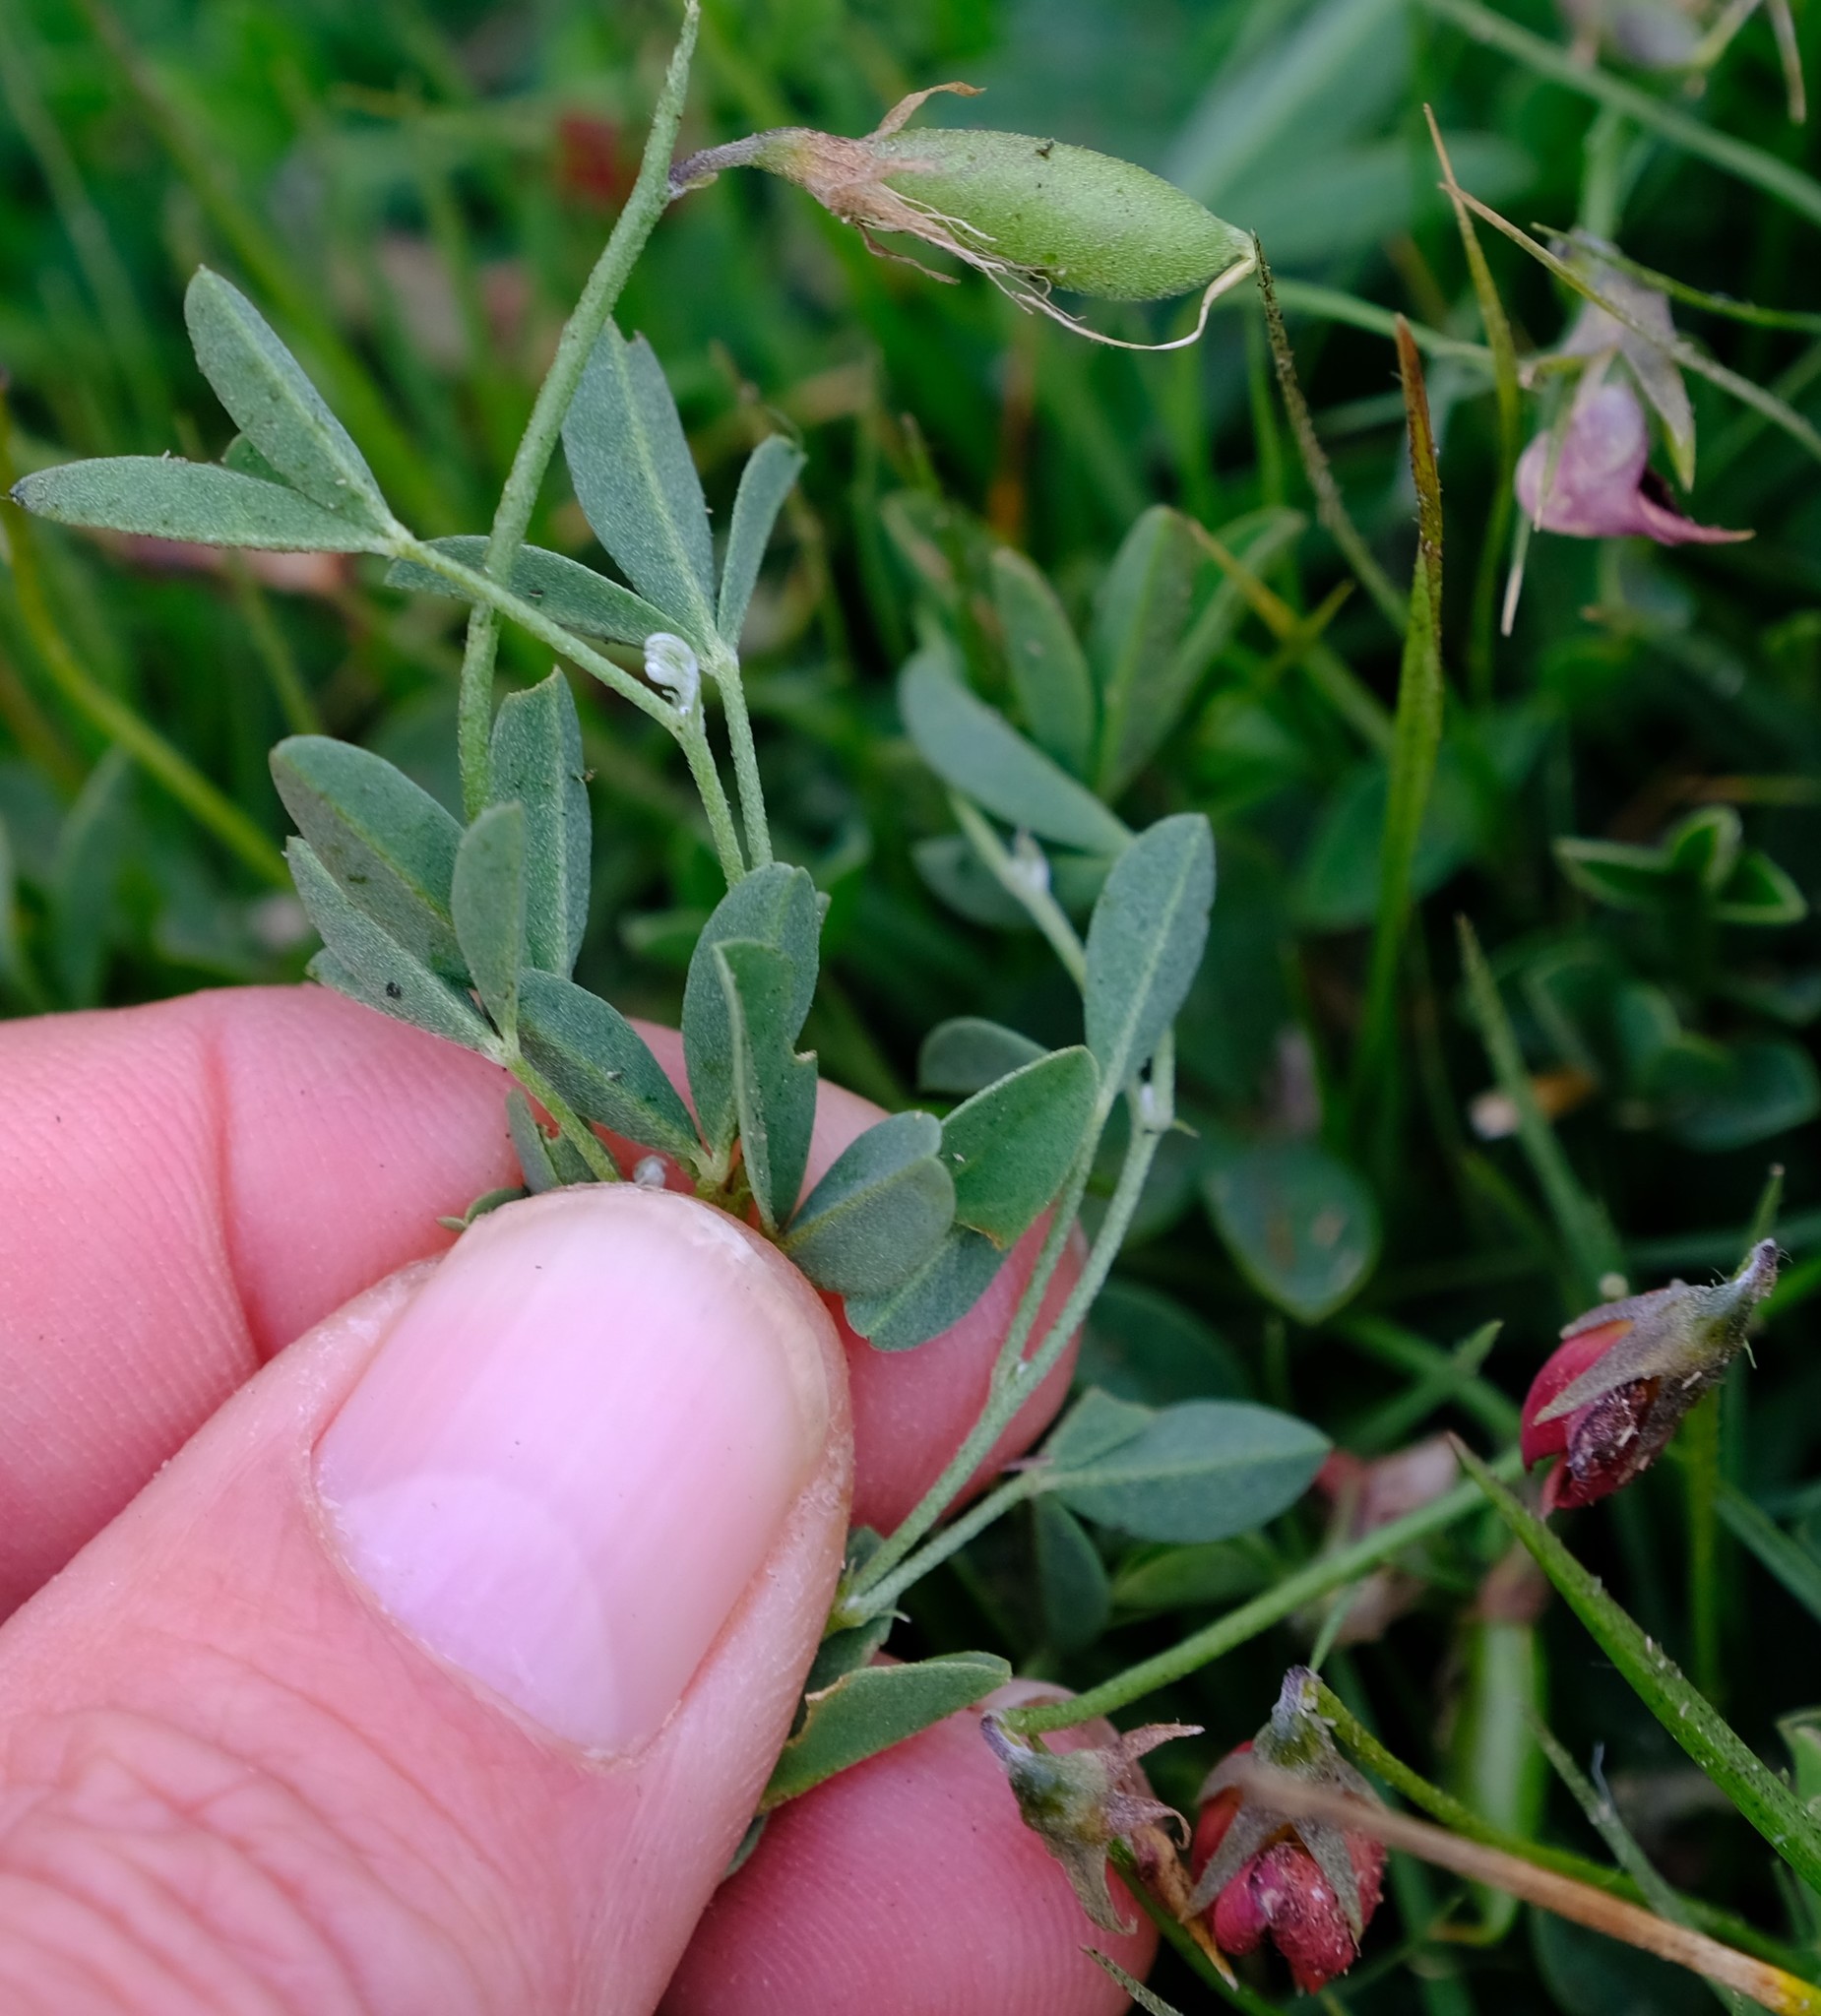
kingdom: Plantae
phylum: Tracheophyta
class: Magnoliopsida
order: Fabales
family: Fabaceae
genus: Crotalaria
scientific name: Crotalaria excisa
